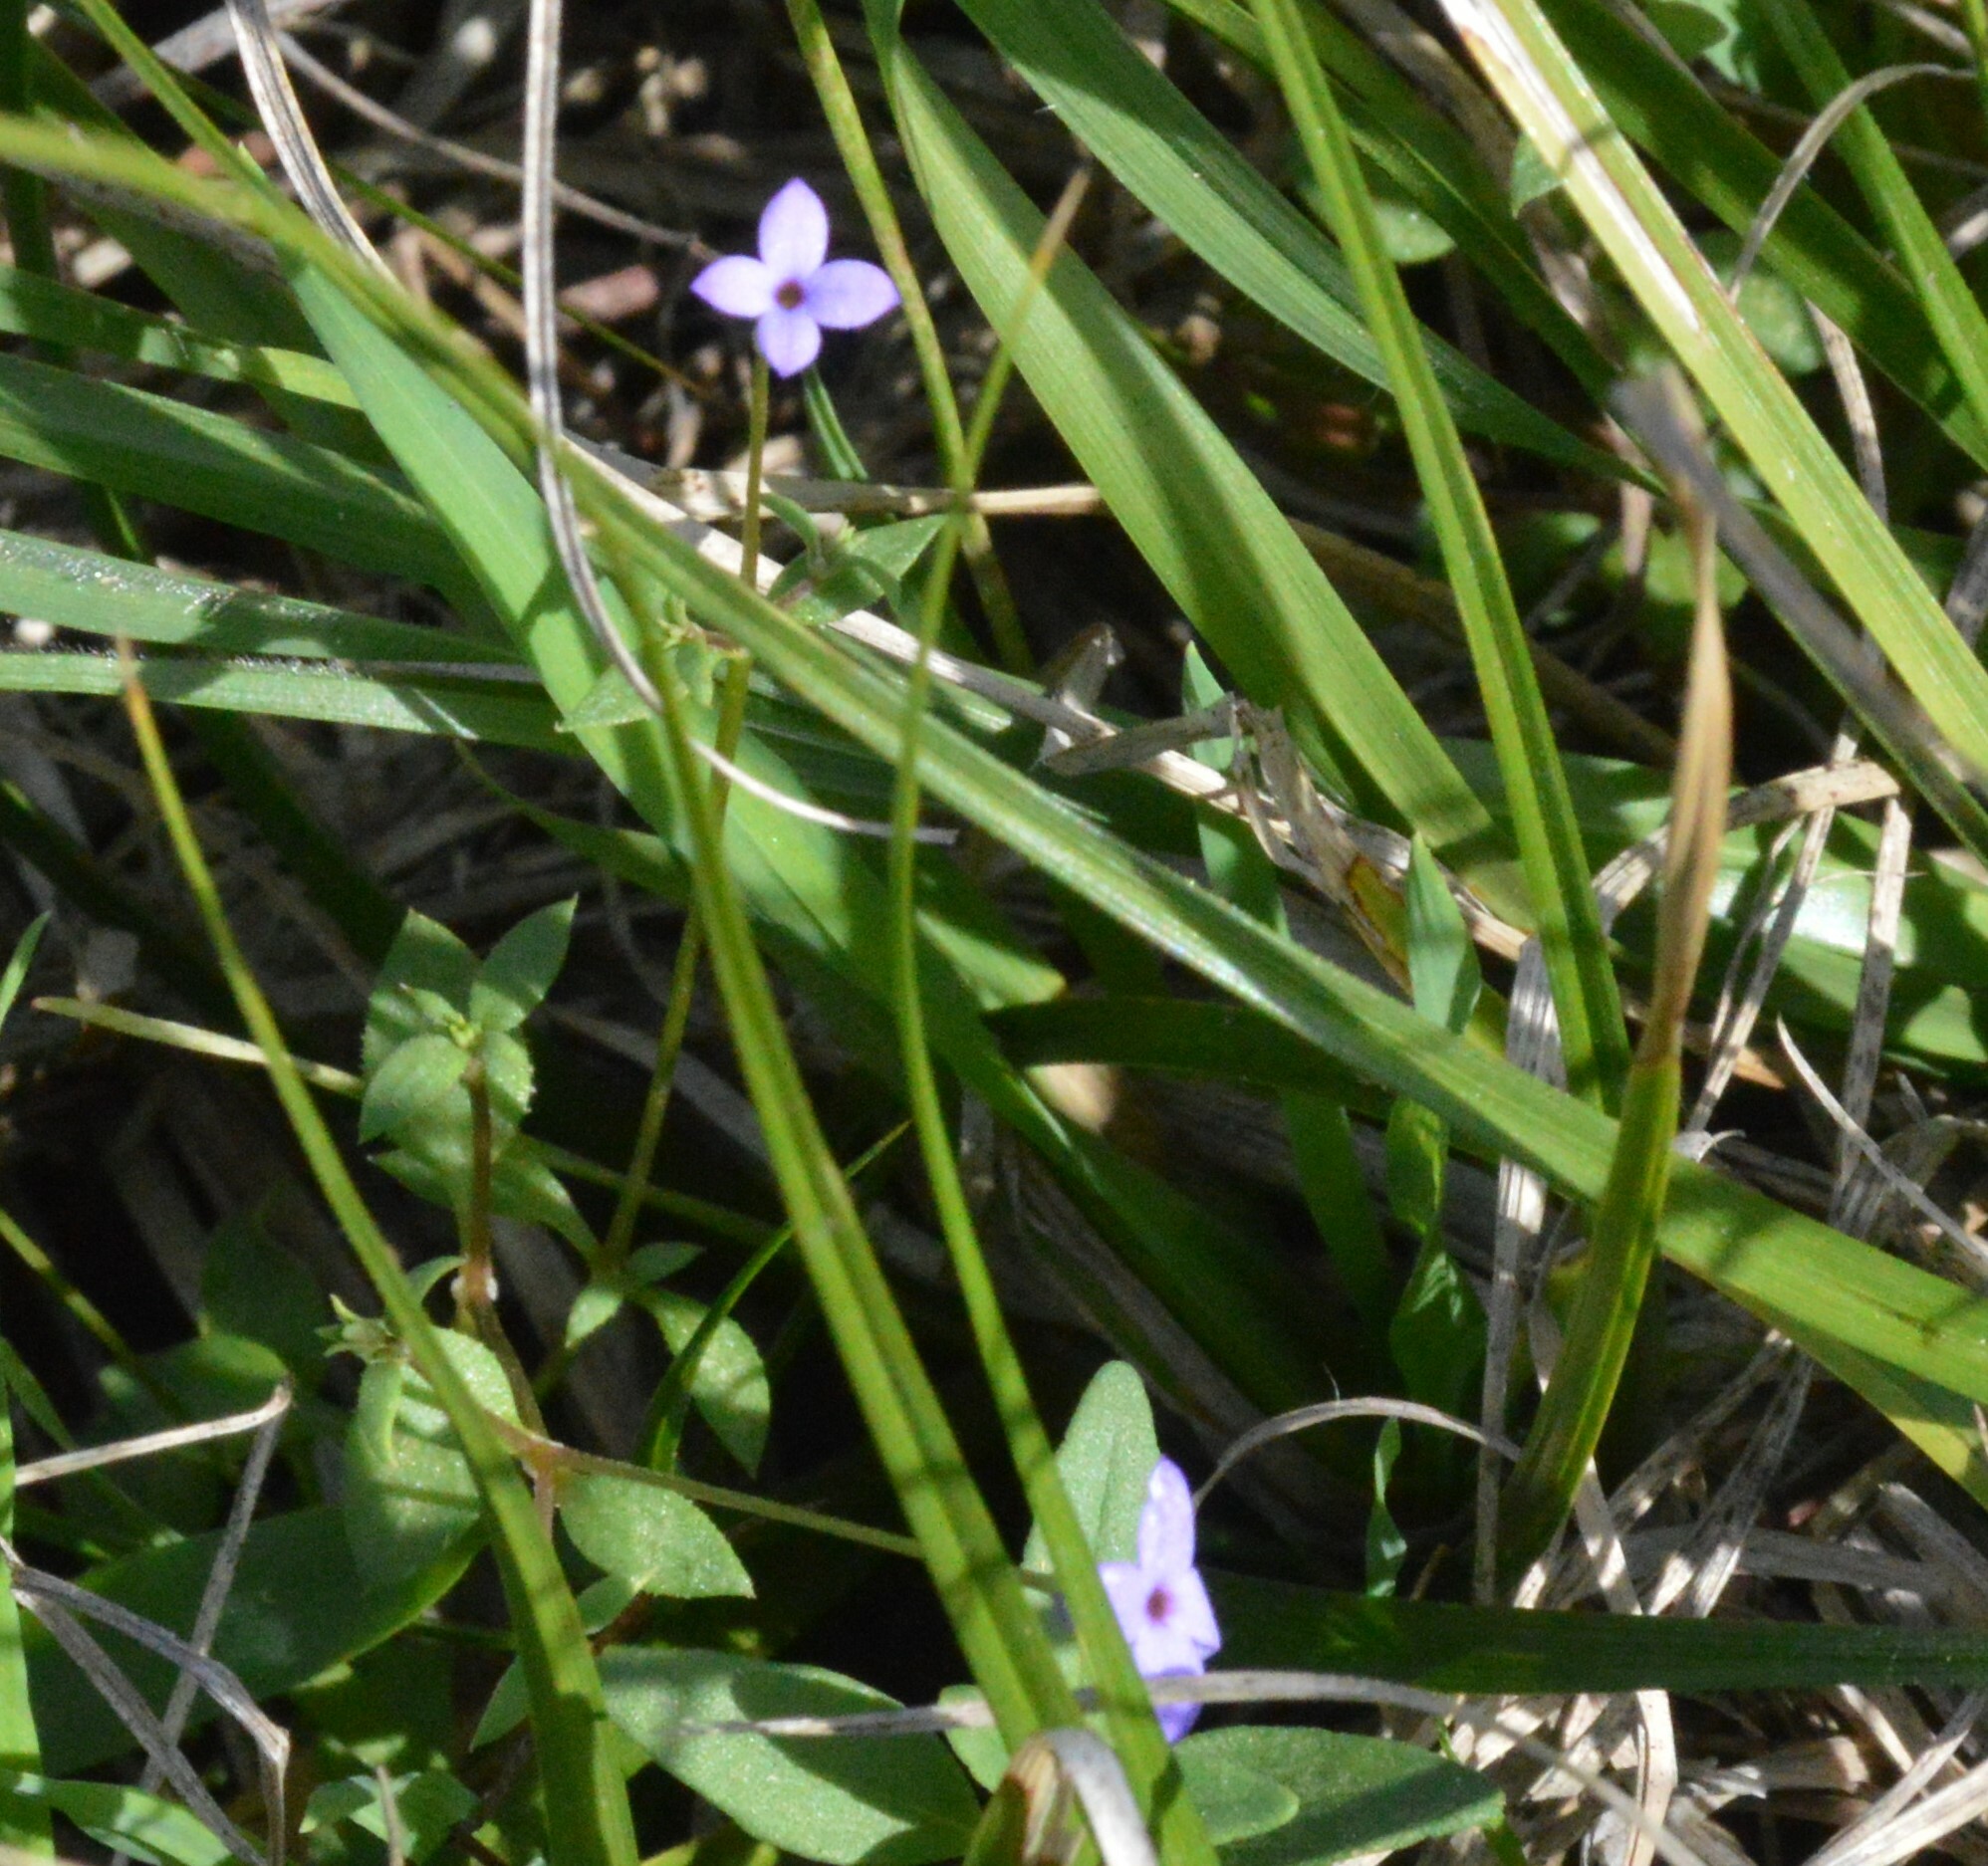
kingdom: Plantae
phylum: Tracheophyta
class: Magnoliopsida
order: Gentianales
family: Rubiaceae
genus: Houstonia
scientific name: Houstonia pusilla
